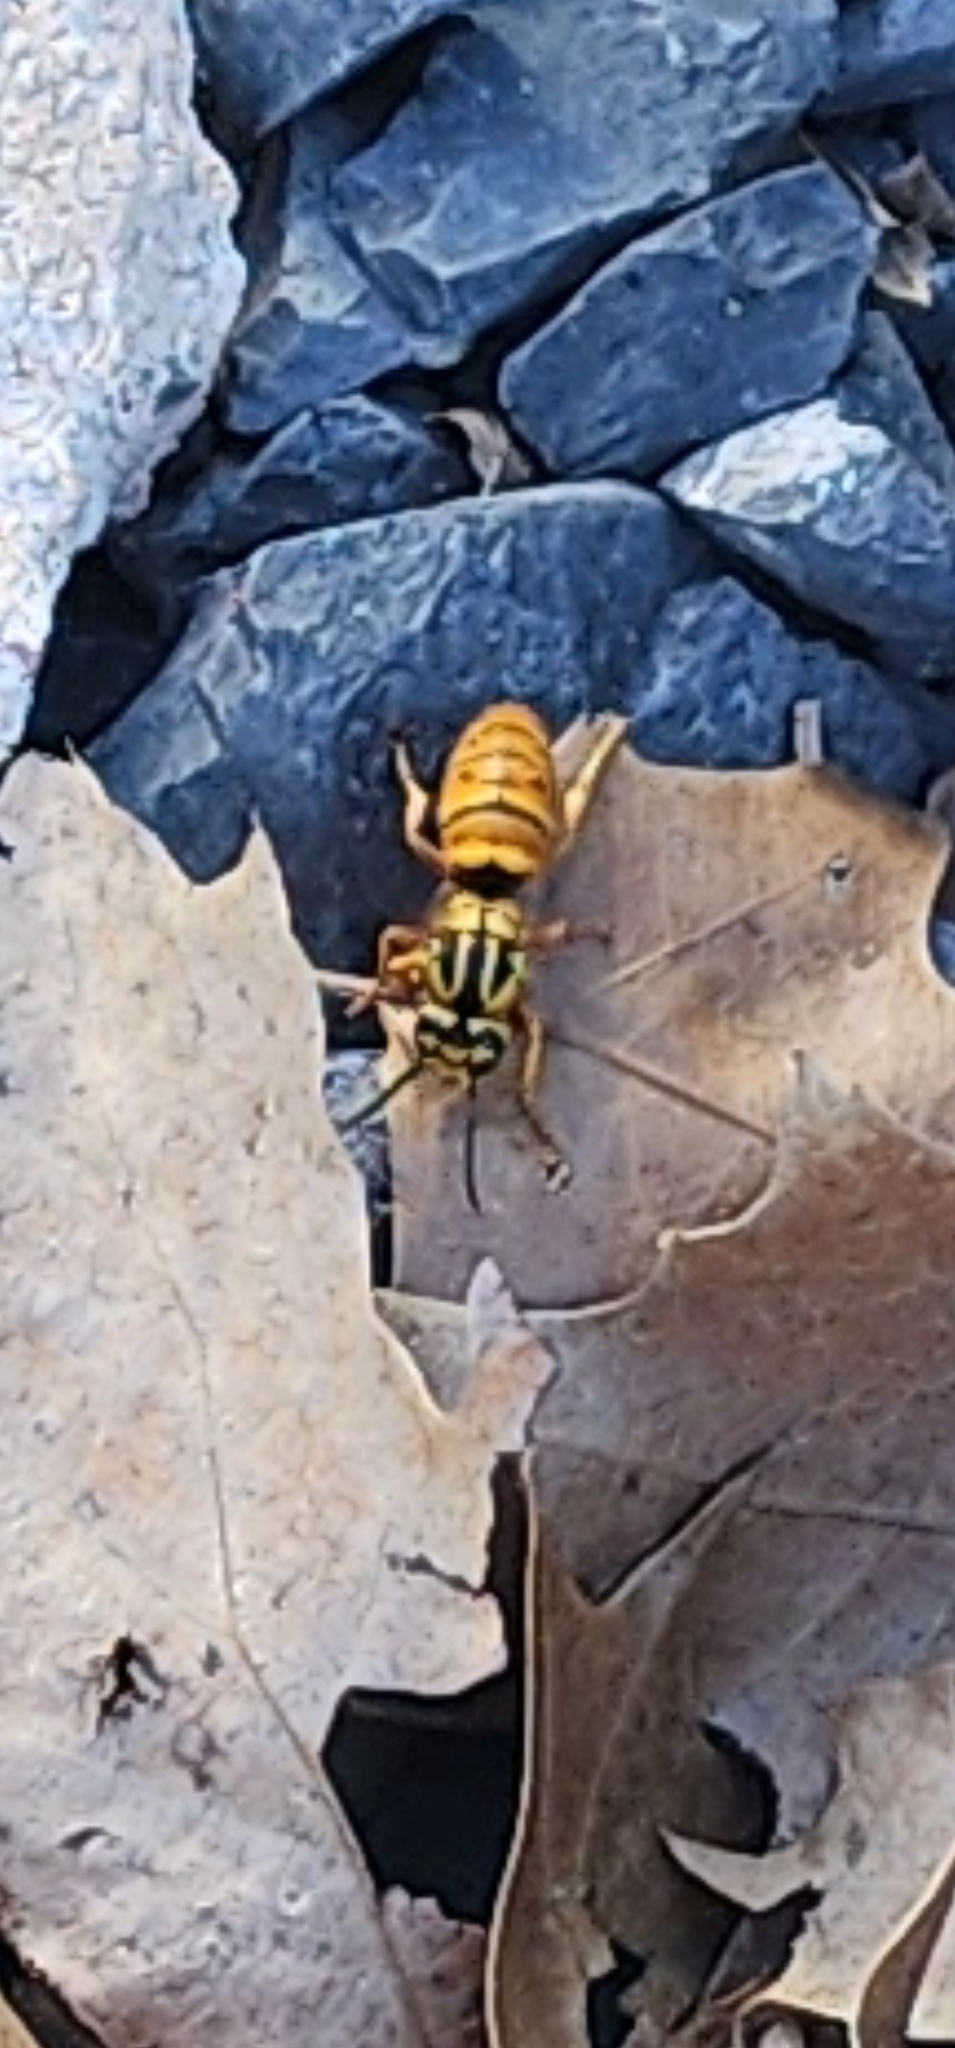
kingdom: Animalia
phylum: Arthropoda
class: Insecta
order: Hymenoptera
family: Vespidae
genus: Vespula
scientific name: Vespula squamosa
